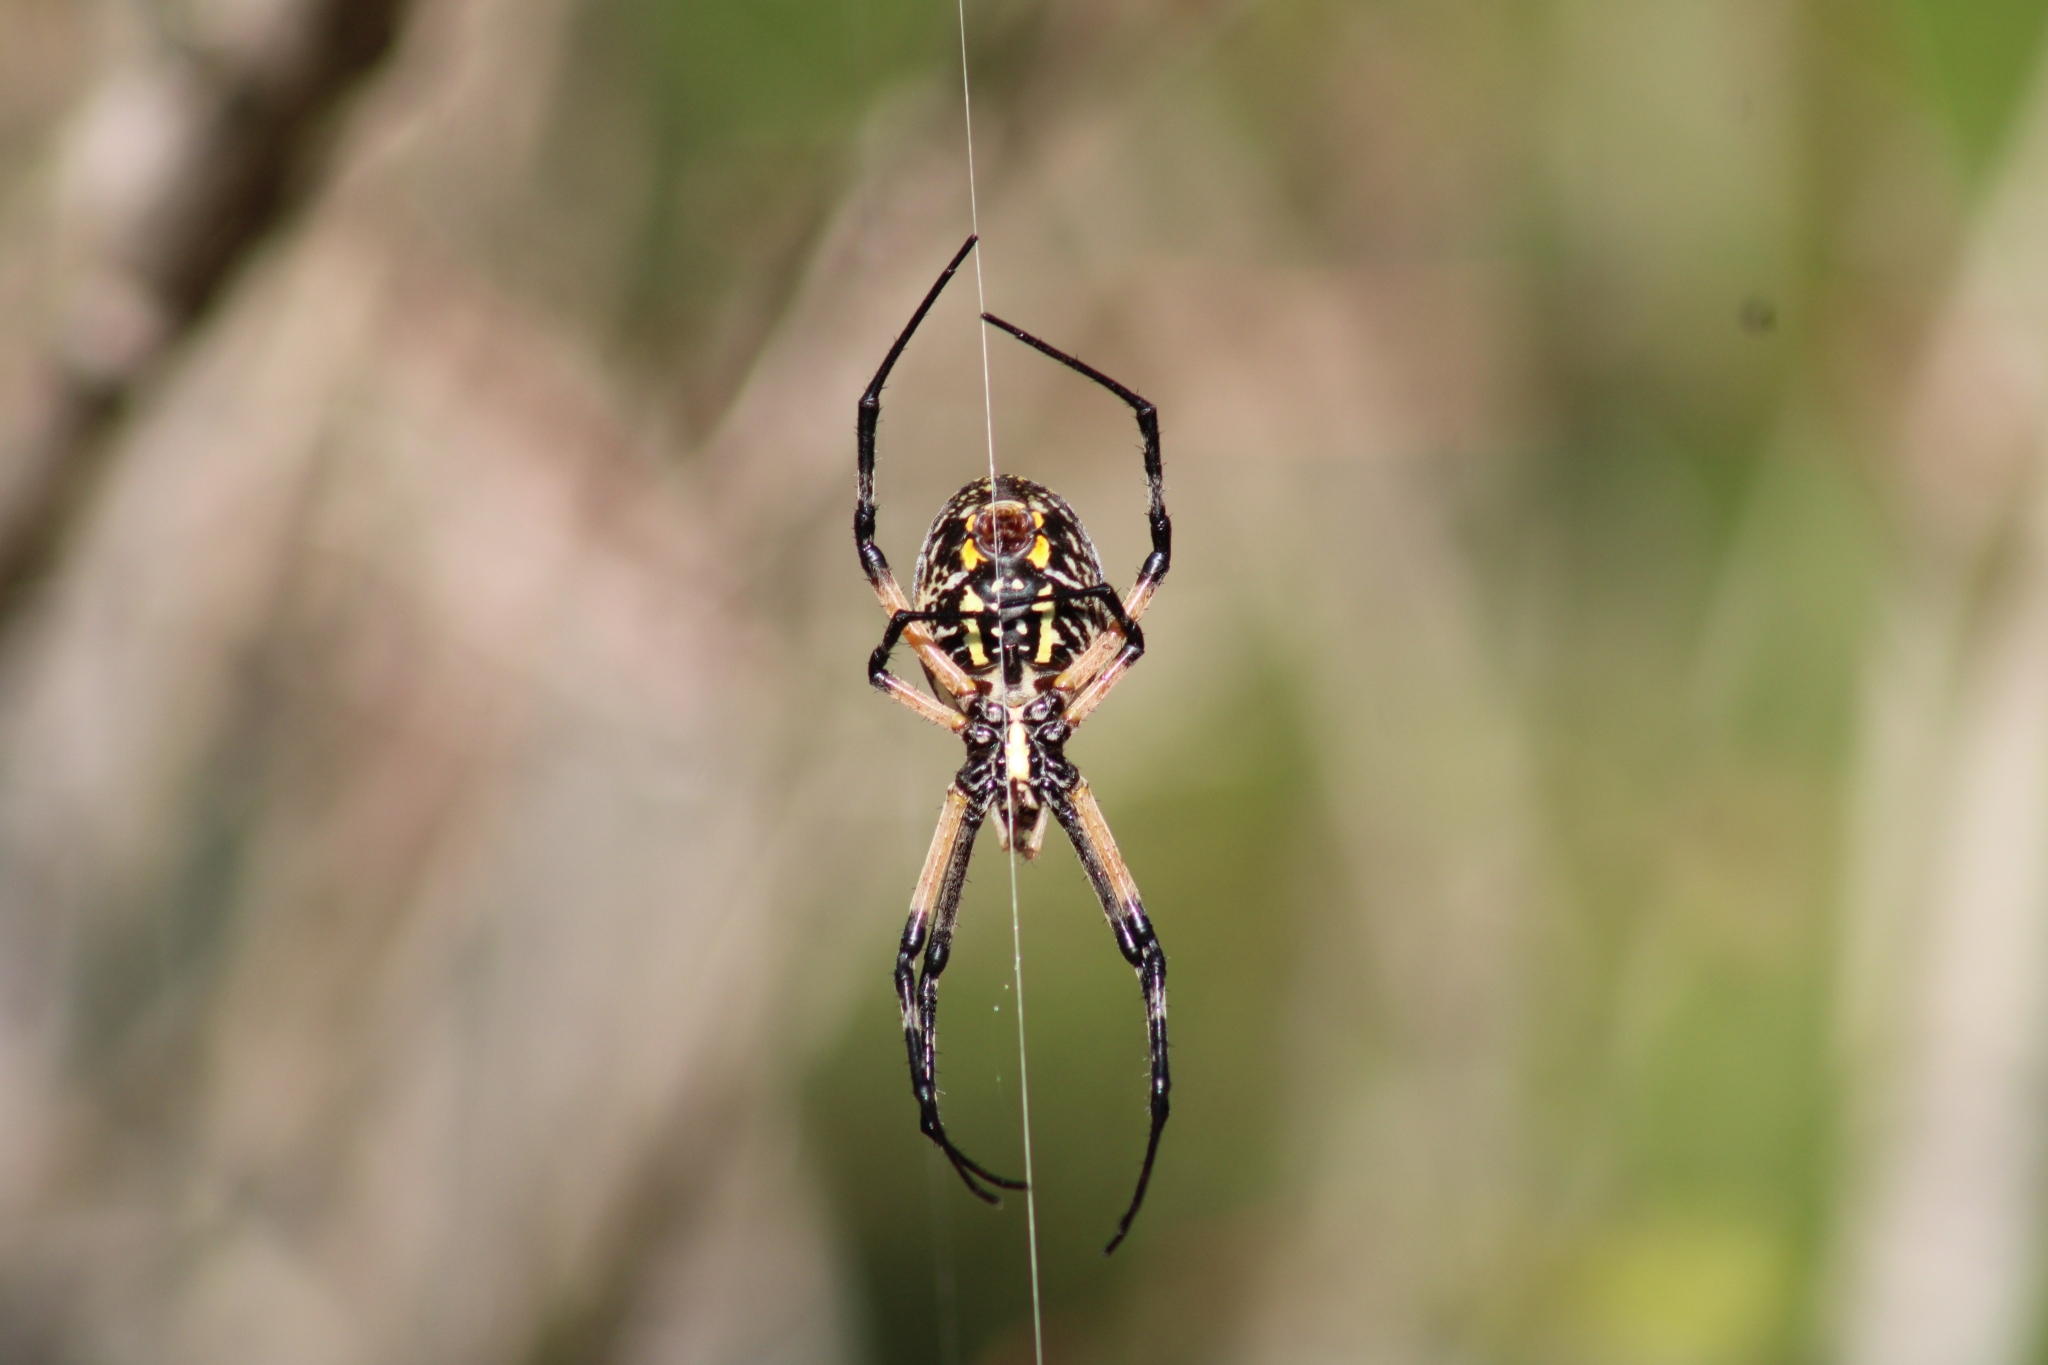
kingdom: Animalia
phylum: Arthropoda
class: Arachnida
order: Araneae
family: Araneidae
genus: Argiope
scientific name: Argiope aurantia
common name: Orb weavers
